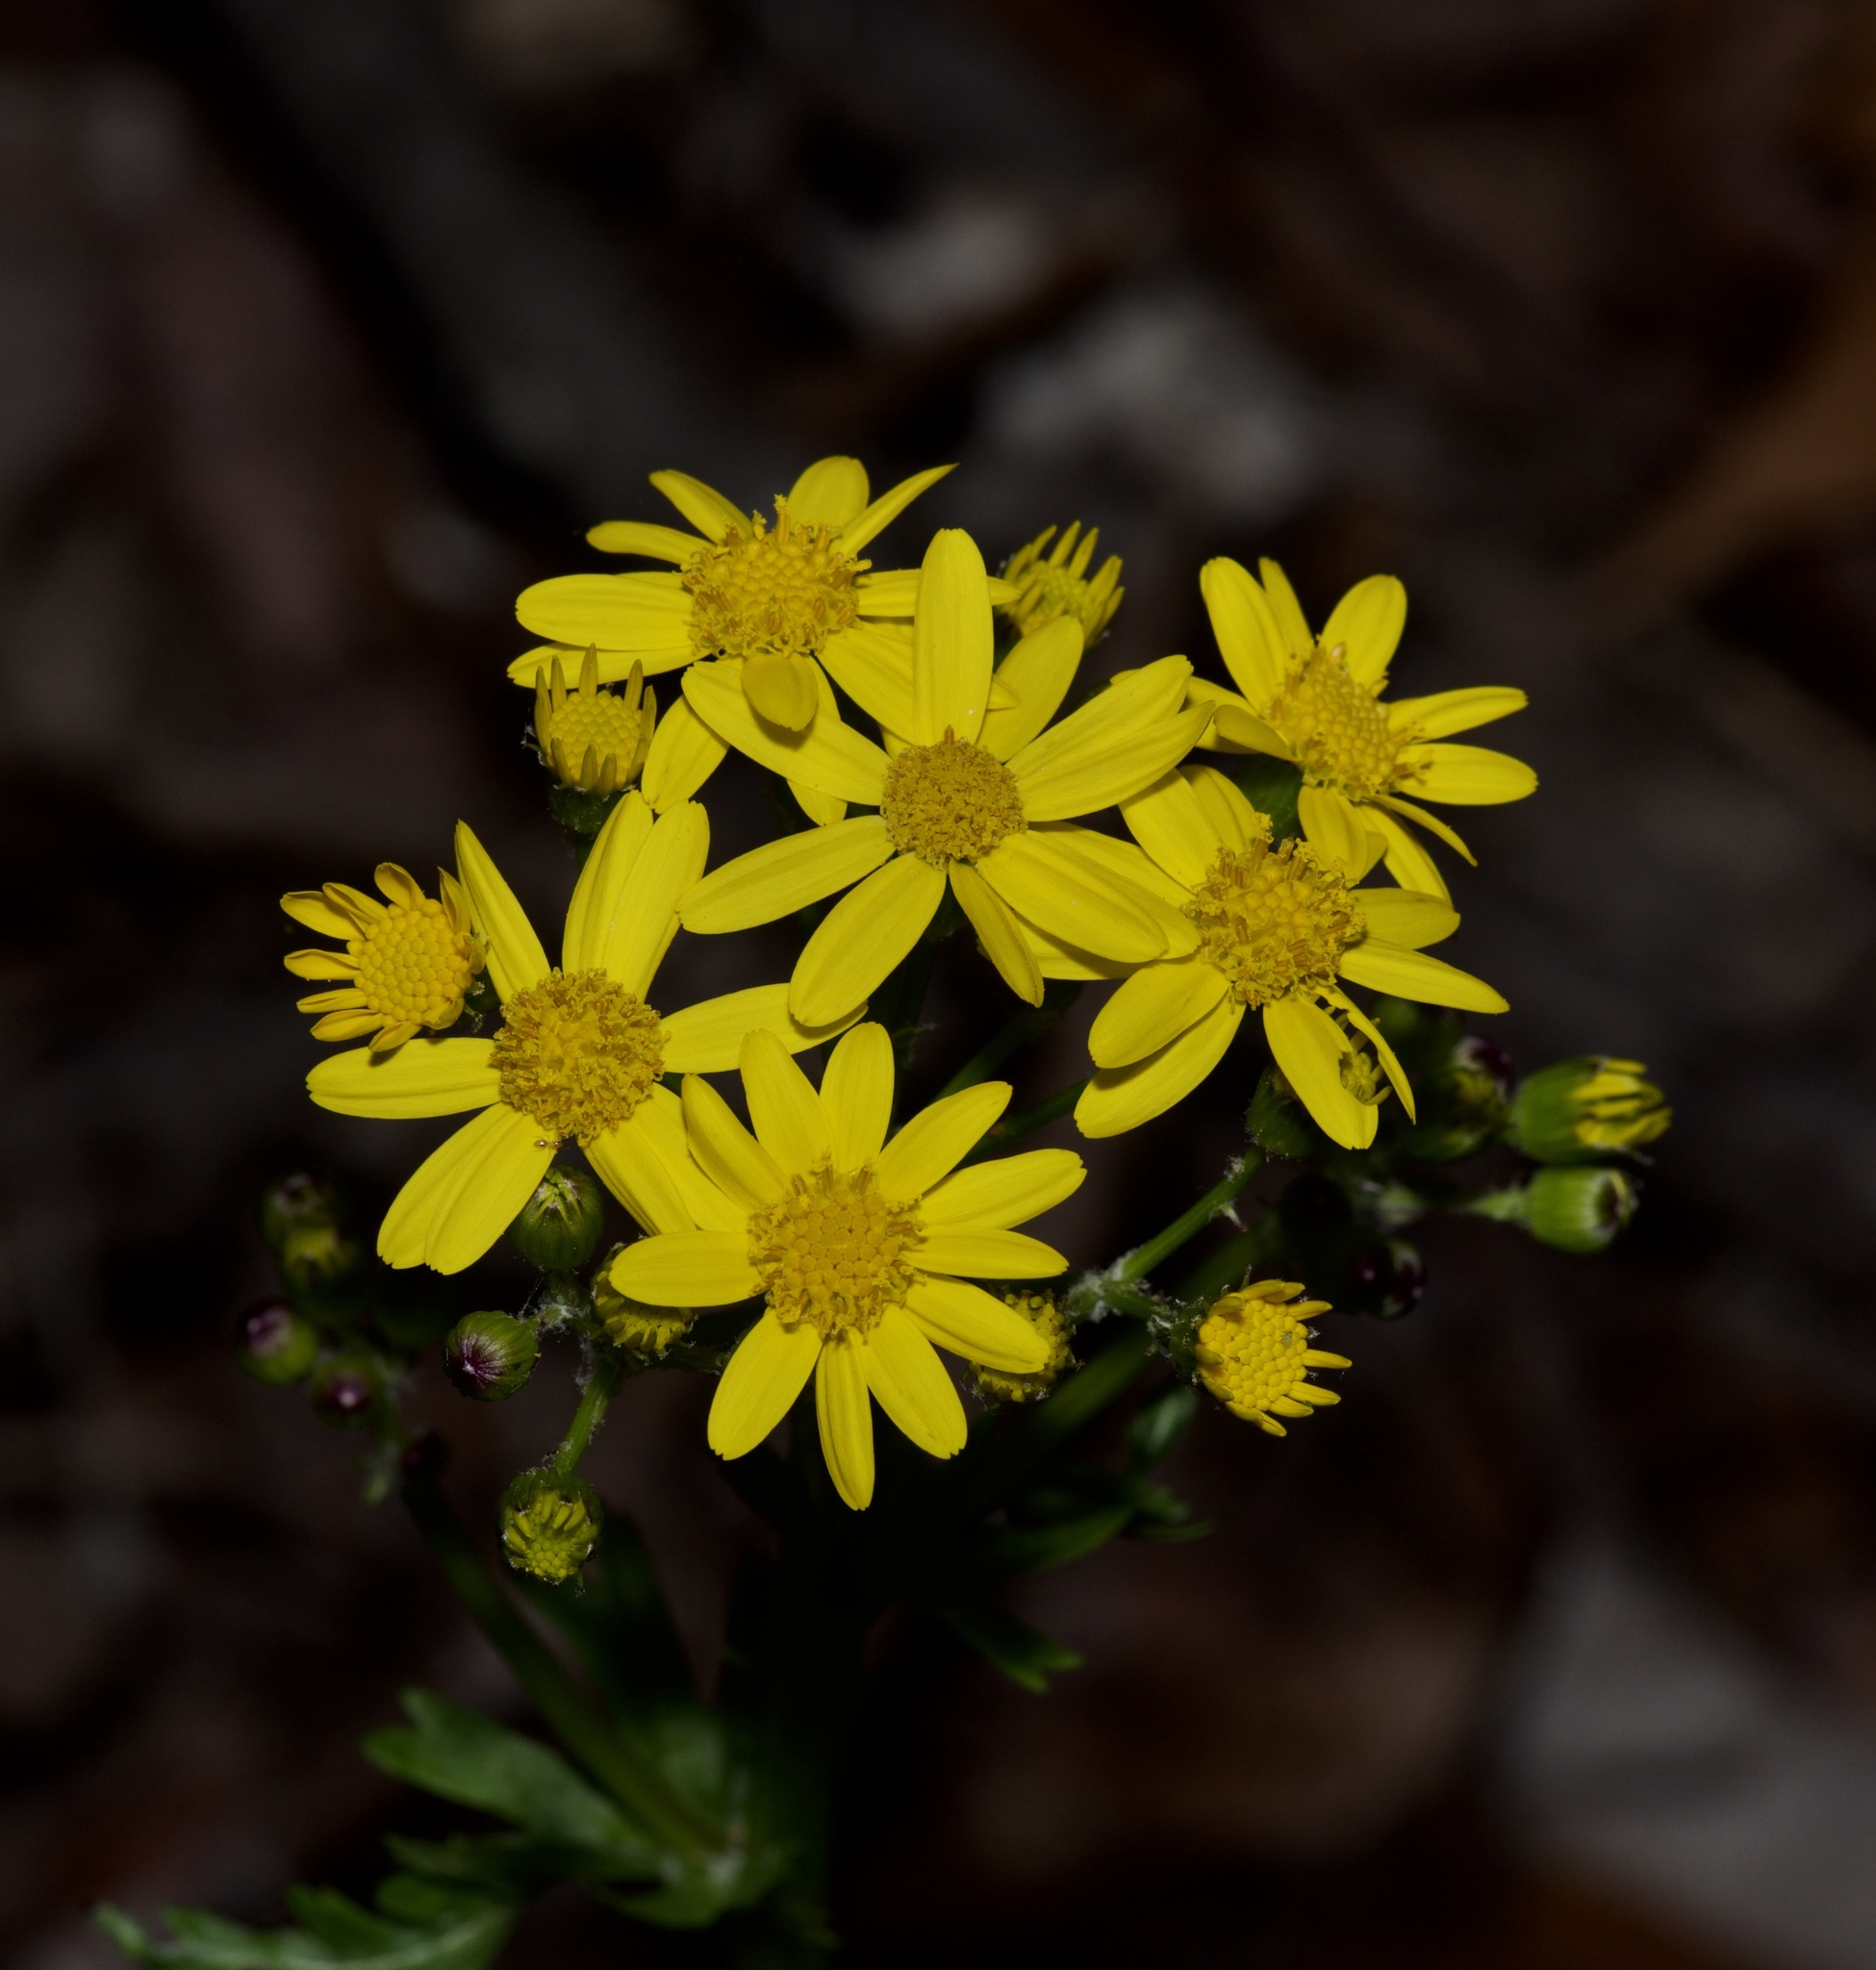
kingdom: Plantae
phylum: Tracheophyta
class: Magnoliopsida
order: Asterales
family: Asteraceae
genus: Packera
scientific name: Packera obovata
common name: Round-leaf ragwort
